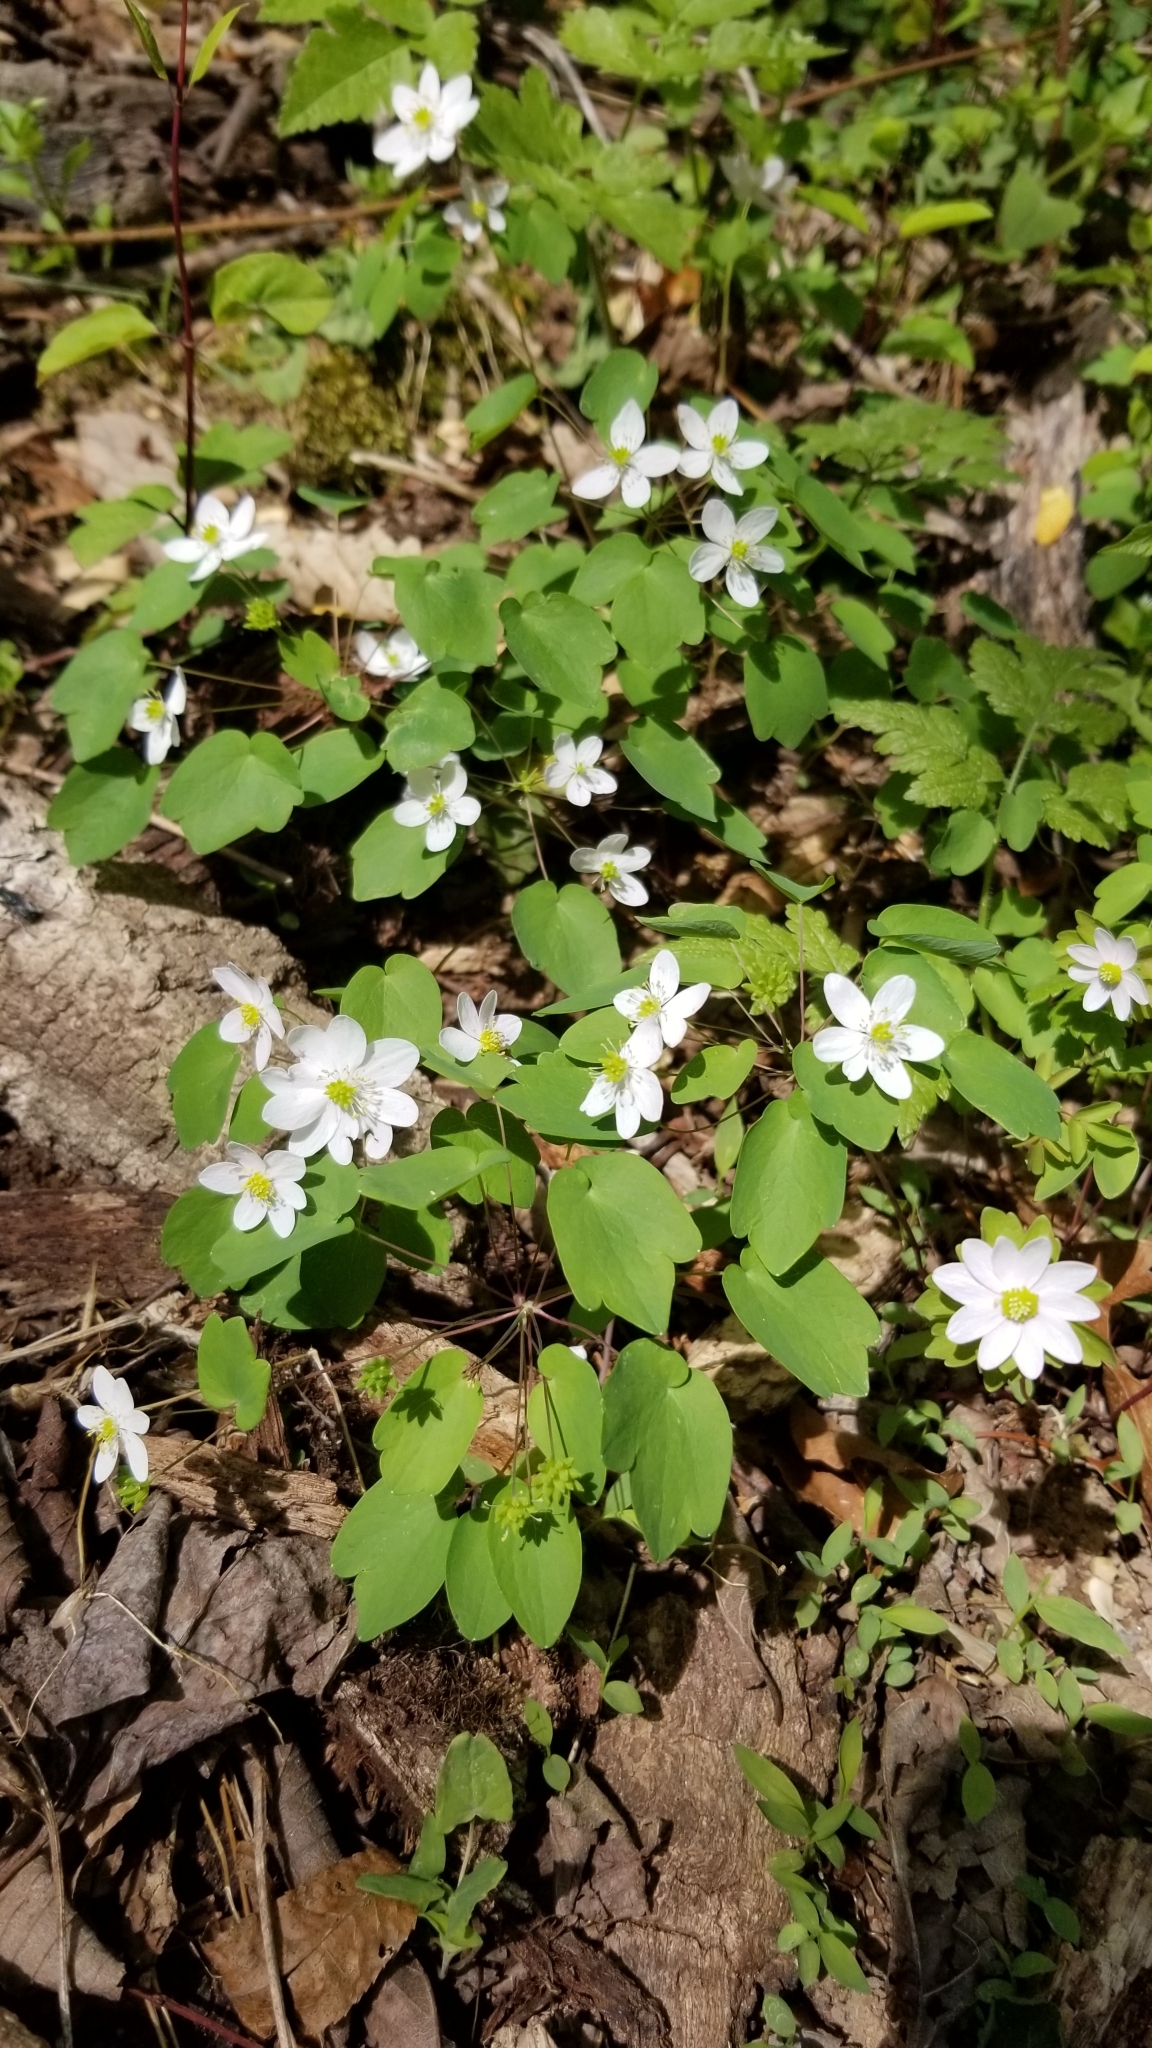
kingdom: Plantae
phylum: Tracheophyta
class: Magnoliopsida
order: Ranunculales
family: Ranunculaceae
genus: Thalictrum
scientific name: Thalictrum thalictroides
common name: Rue-anemone
